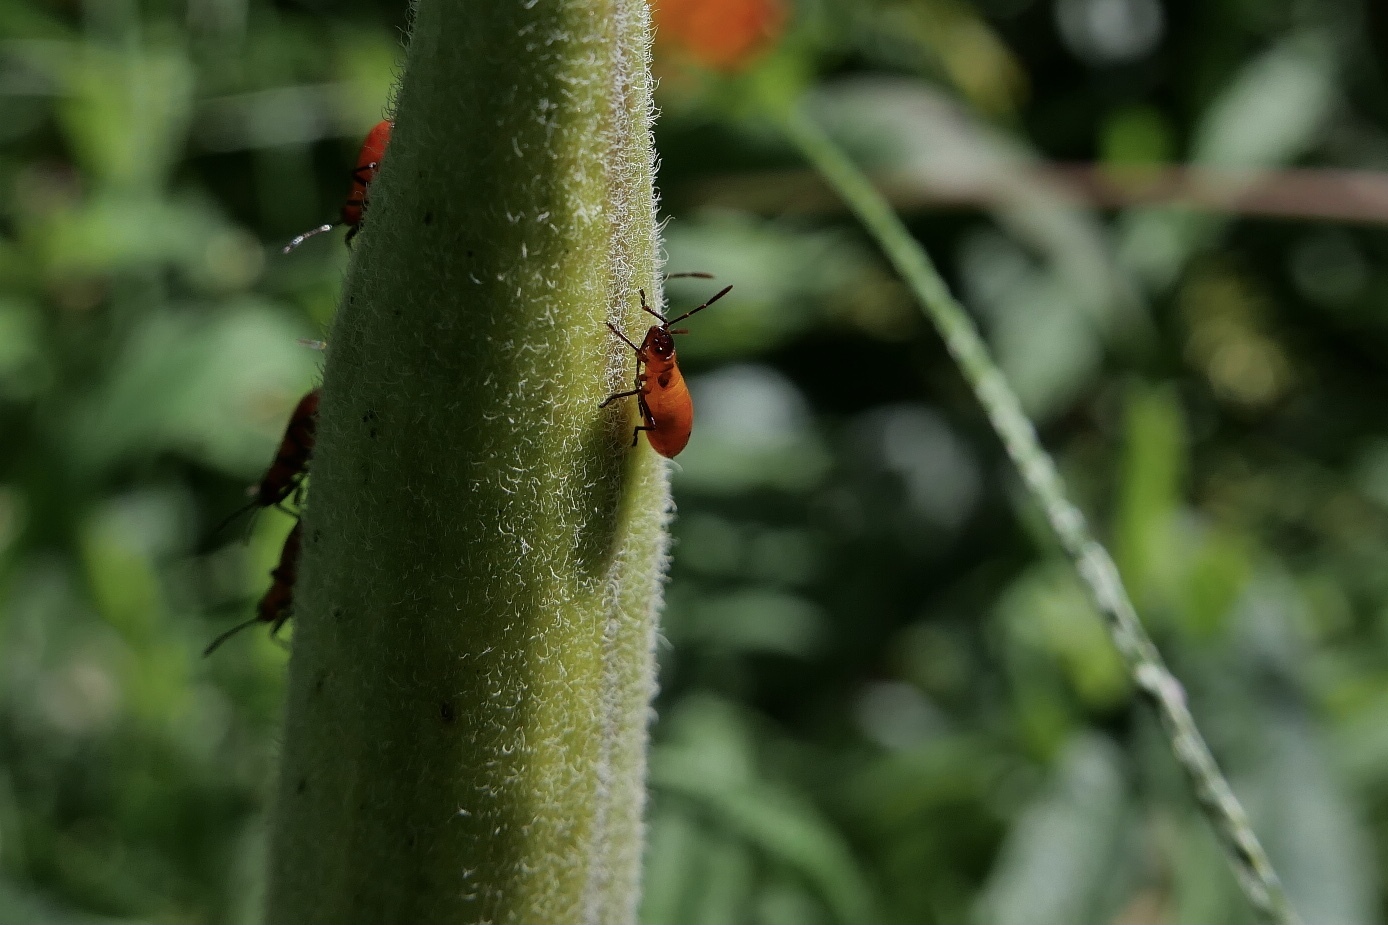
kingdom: Animalia
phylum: Arthropoda
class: Insecta
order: Hemiptera
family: Lygaeidae
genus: Oncopeltus
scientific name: Oncopeltus fasciatus
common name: Large milkweed bug
